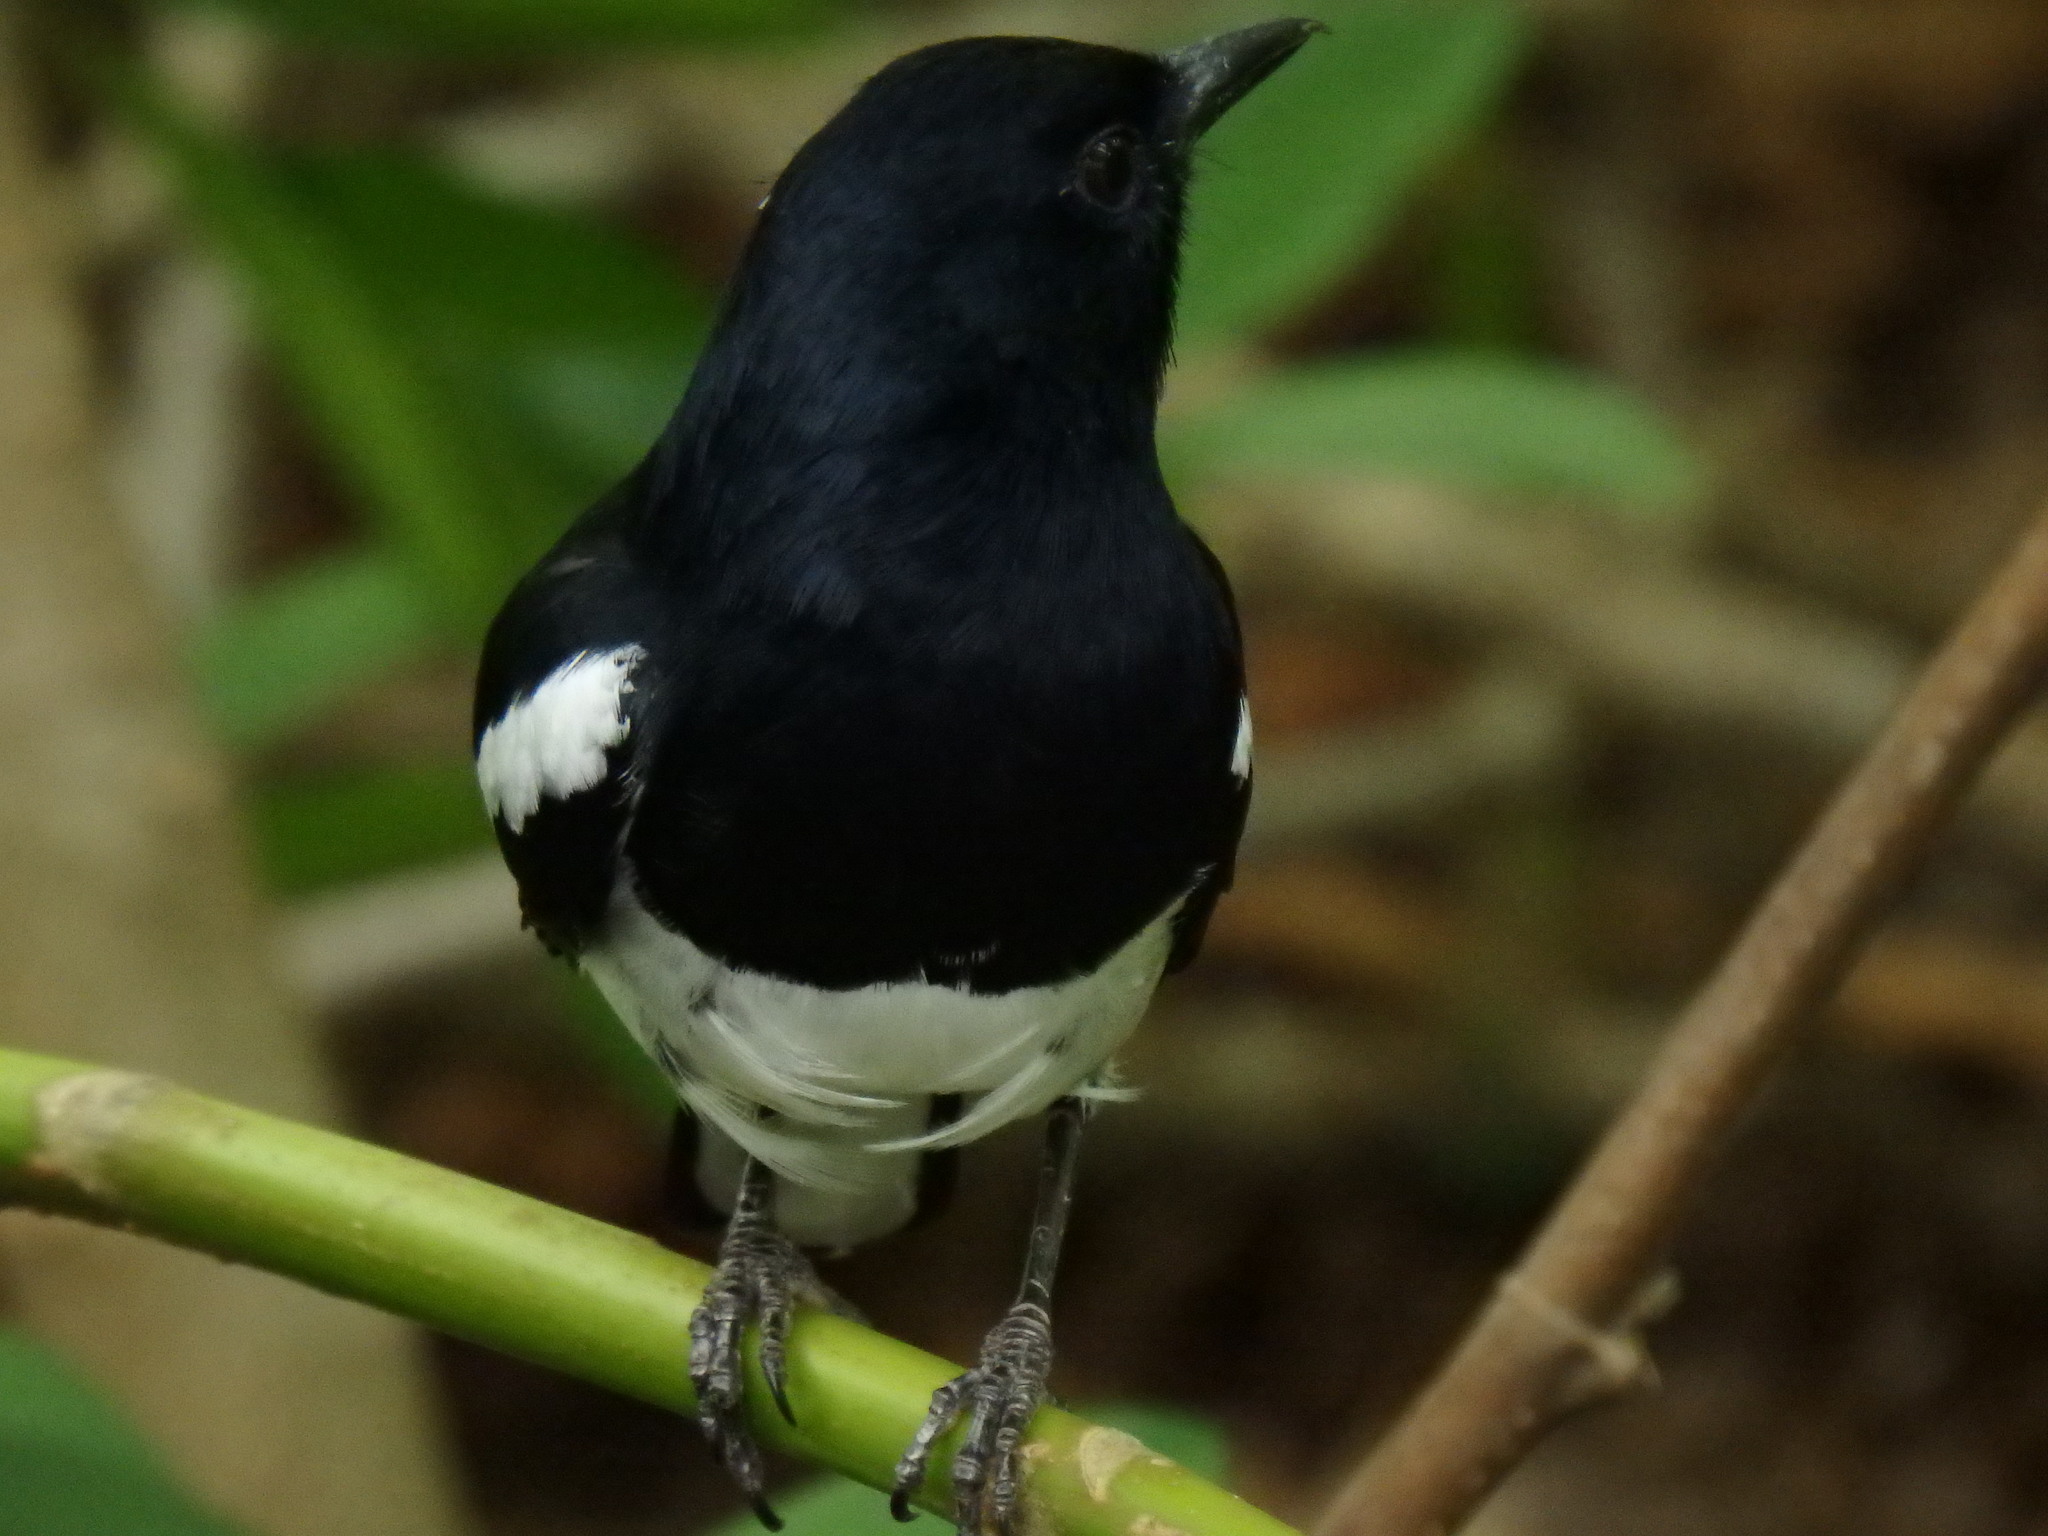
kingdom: Animalia
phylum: Chordata
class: Aves
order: Passeriformes
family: Muscicapidae
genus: Copsychus
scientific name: Copsychus saularis
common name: Oriental magpie-robin
